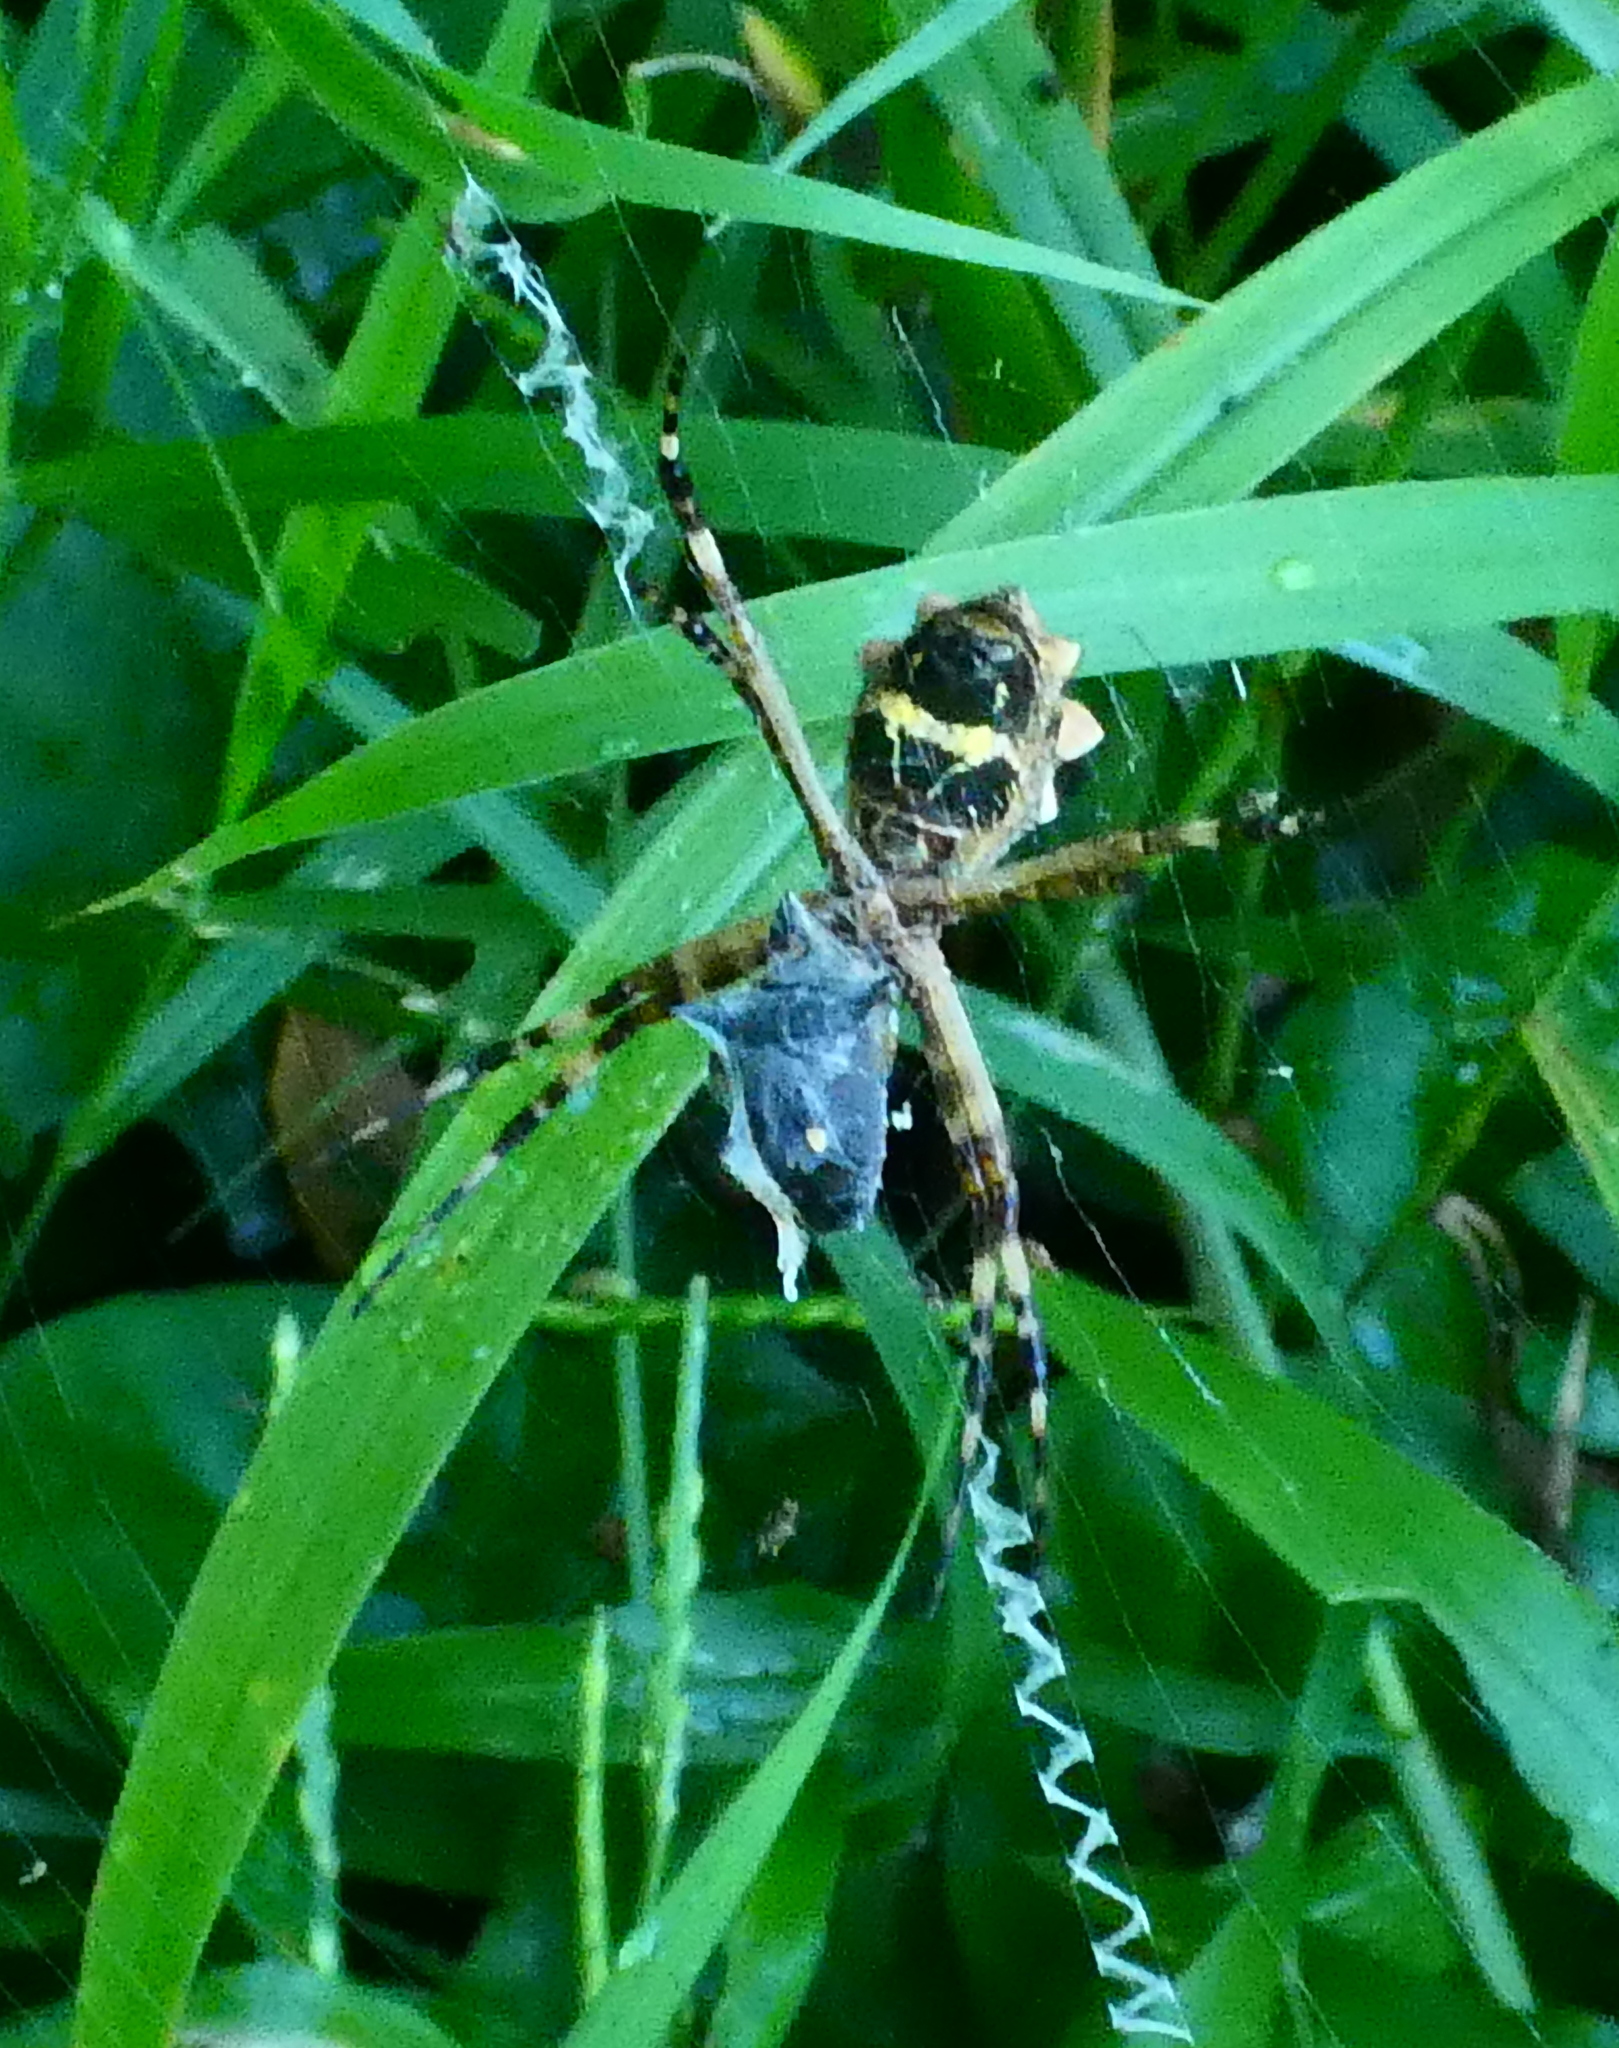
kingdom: Animalia
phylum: Arthropoda
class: Arachnida
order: Araneae
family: Araneidae
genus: Argiope
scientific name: Argiope argentata
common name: Orb weavers
